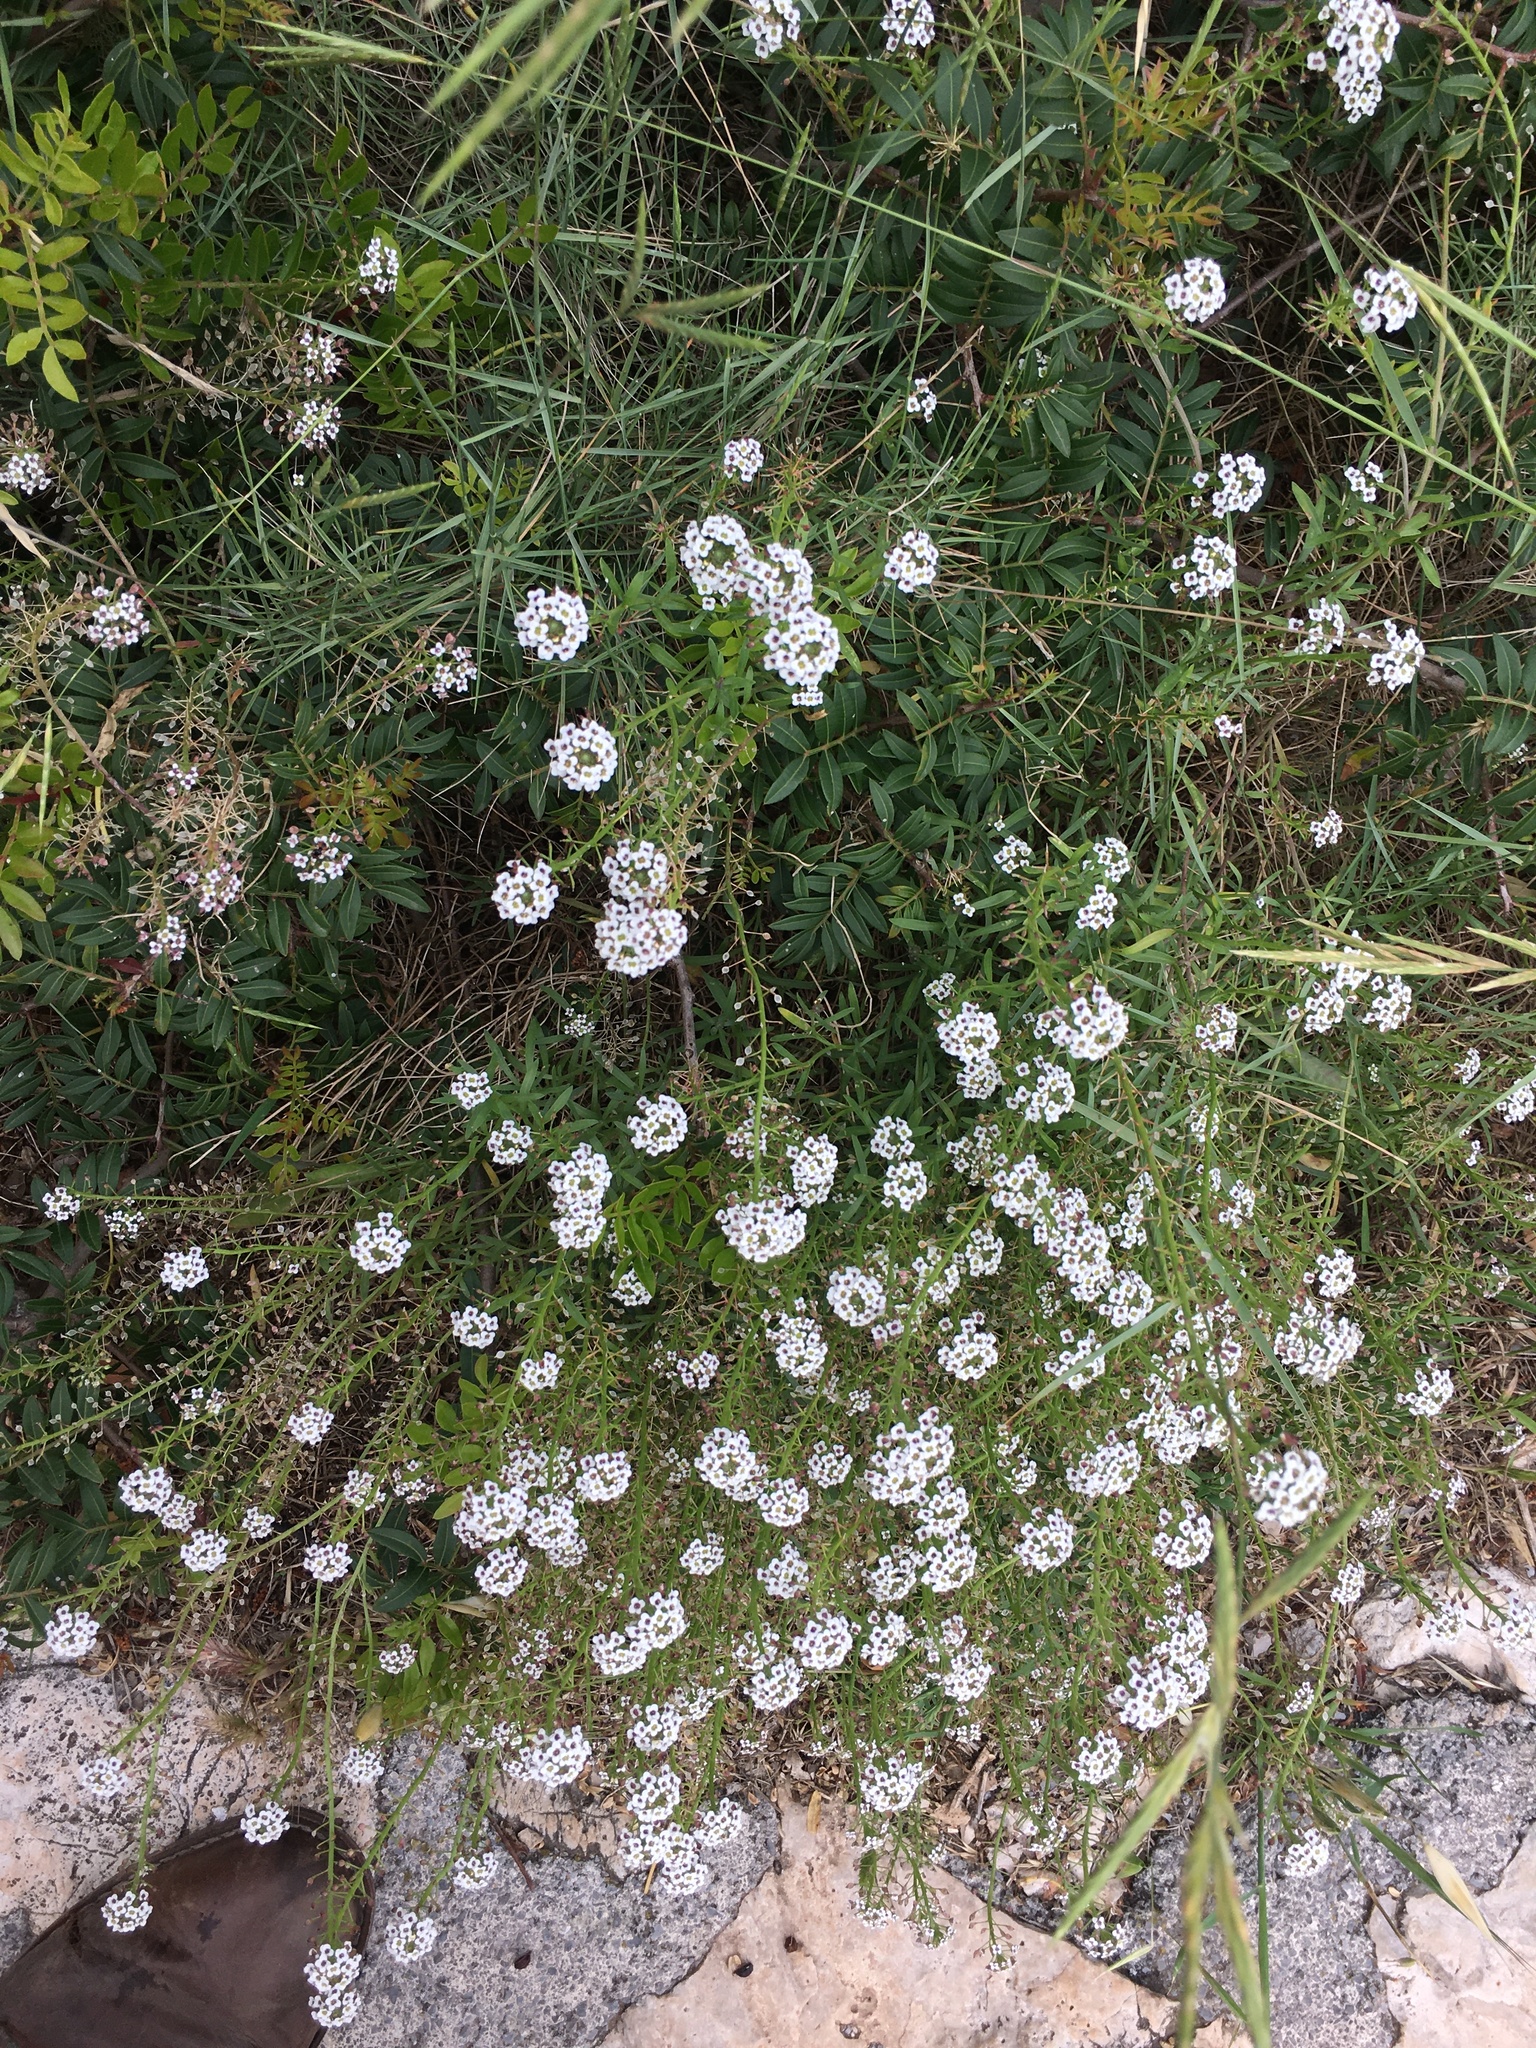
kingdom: Plantae
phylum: Tracheophyta
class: Magnoliopsida
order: Brassicales
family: Brassicaceae
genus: Lobularia
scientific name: Lobularia maritima
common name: Sweet alison
